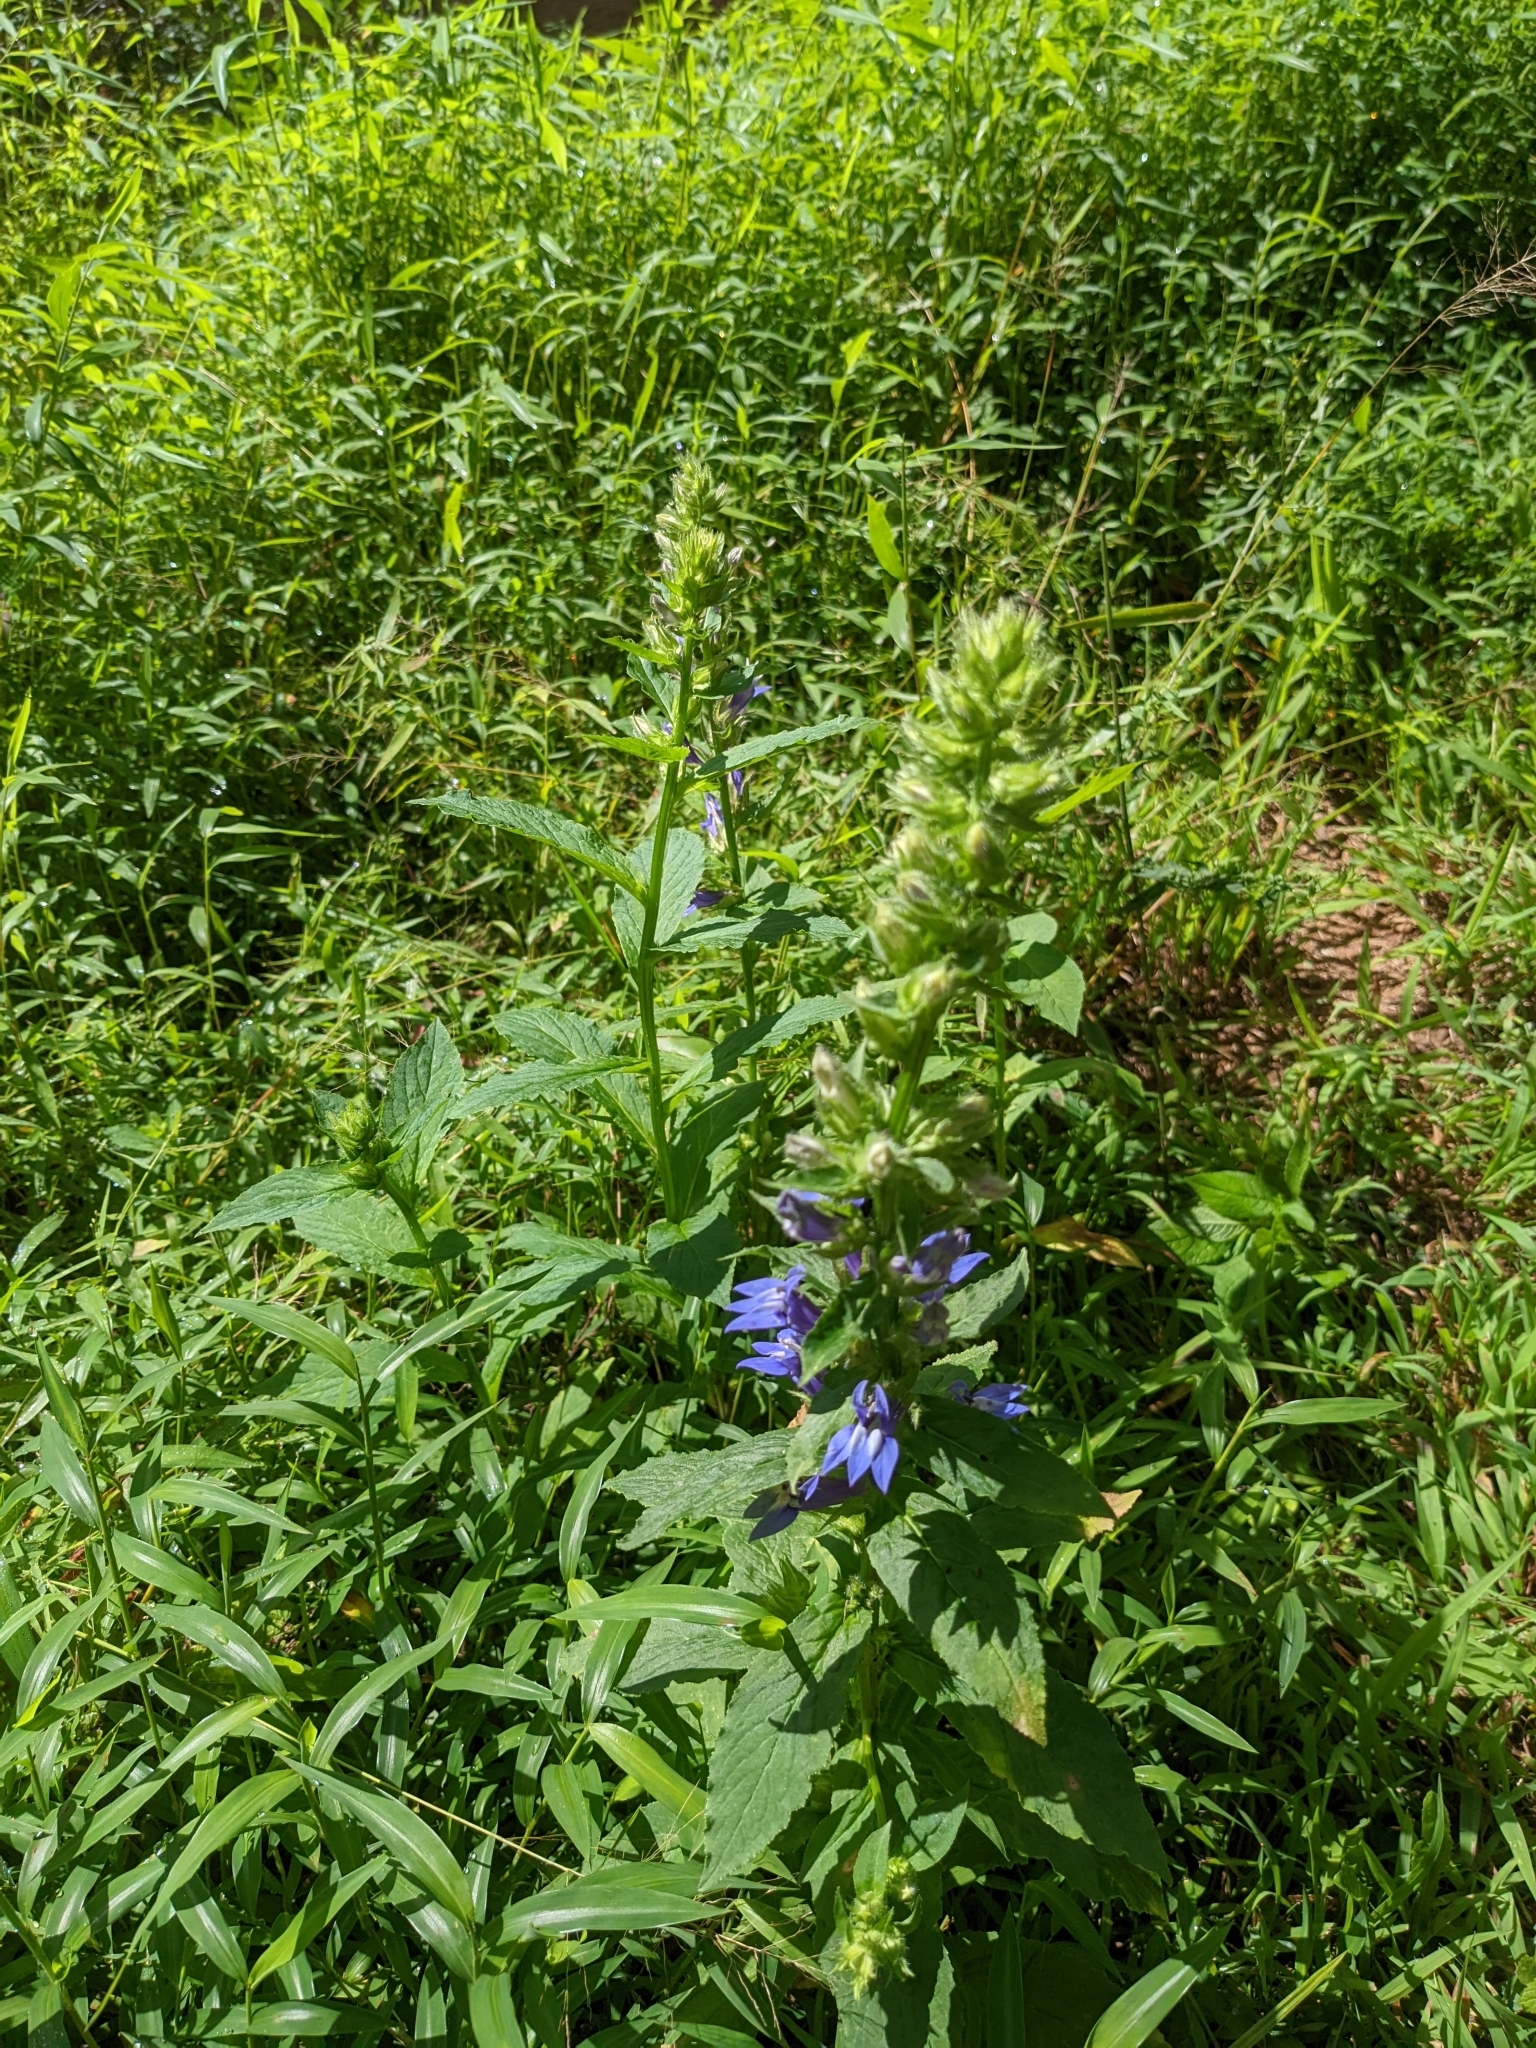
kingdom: Plantae
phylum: Tracheophyta
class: Magnoliopsida
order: Asterales
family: Campanulaceae
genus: Lobelia
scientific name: Lobelia siphilitica
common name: Great lobelia
